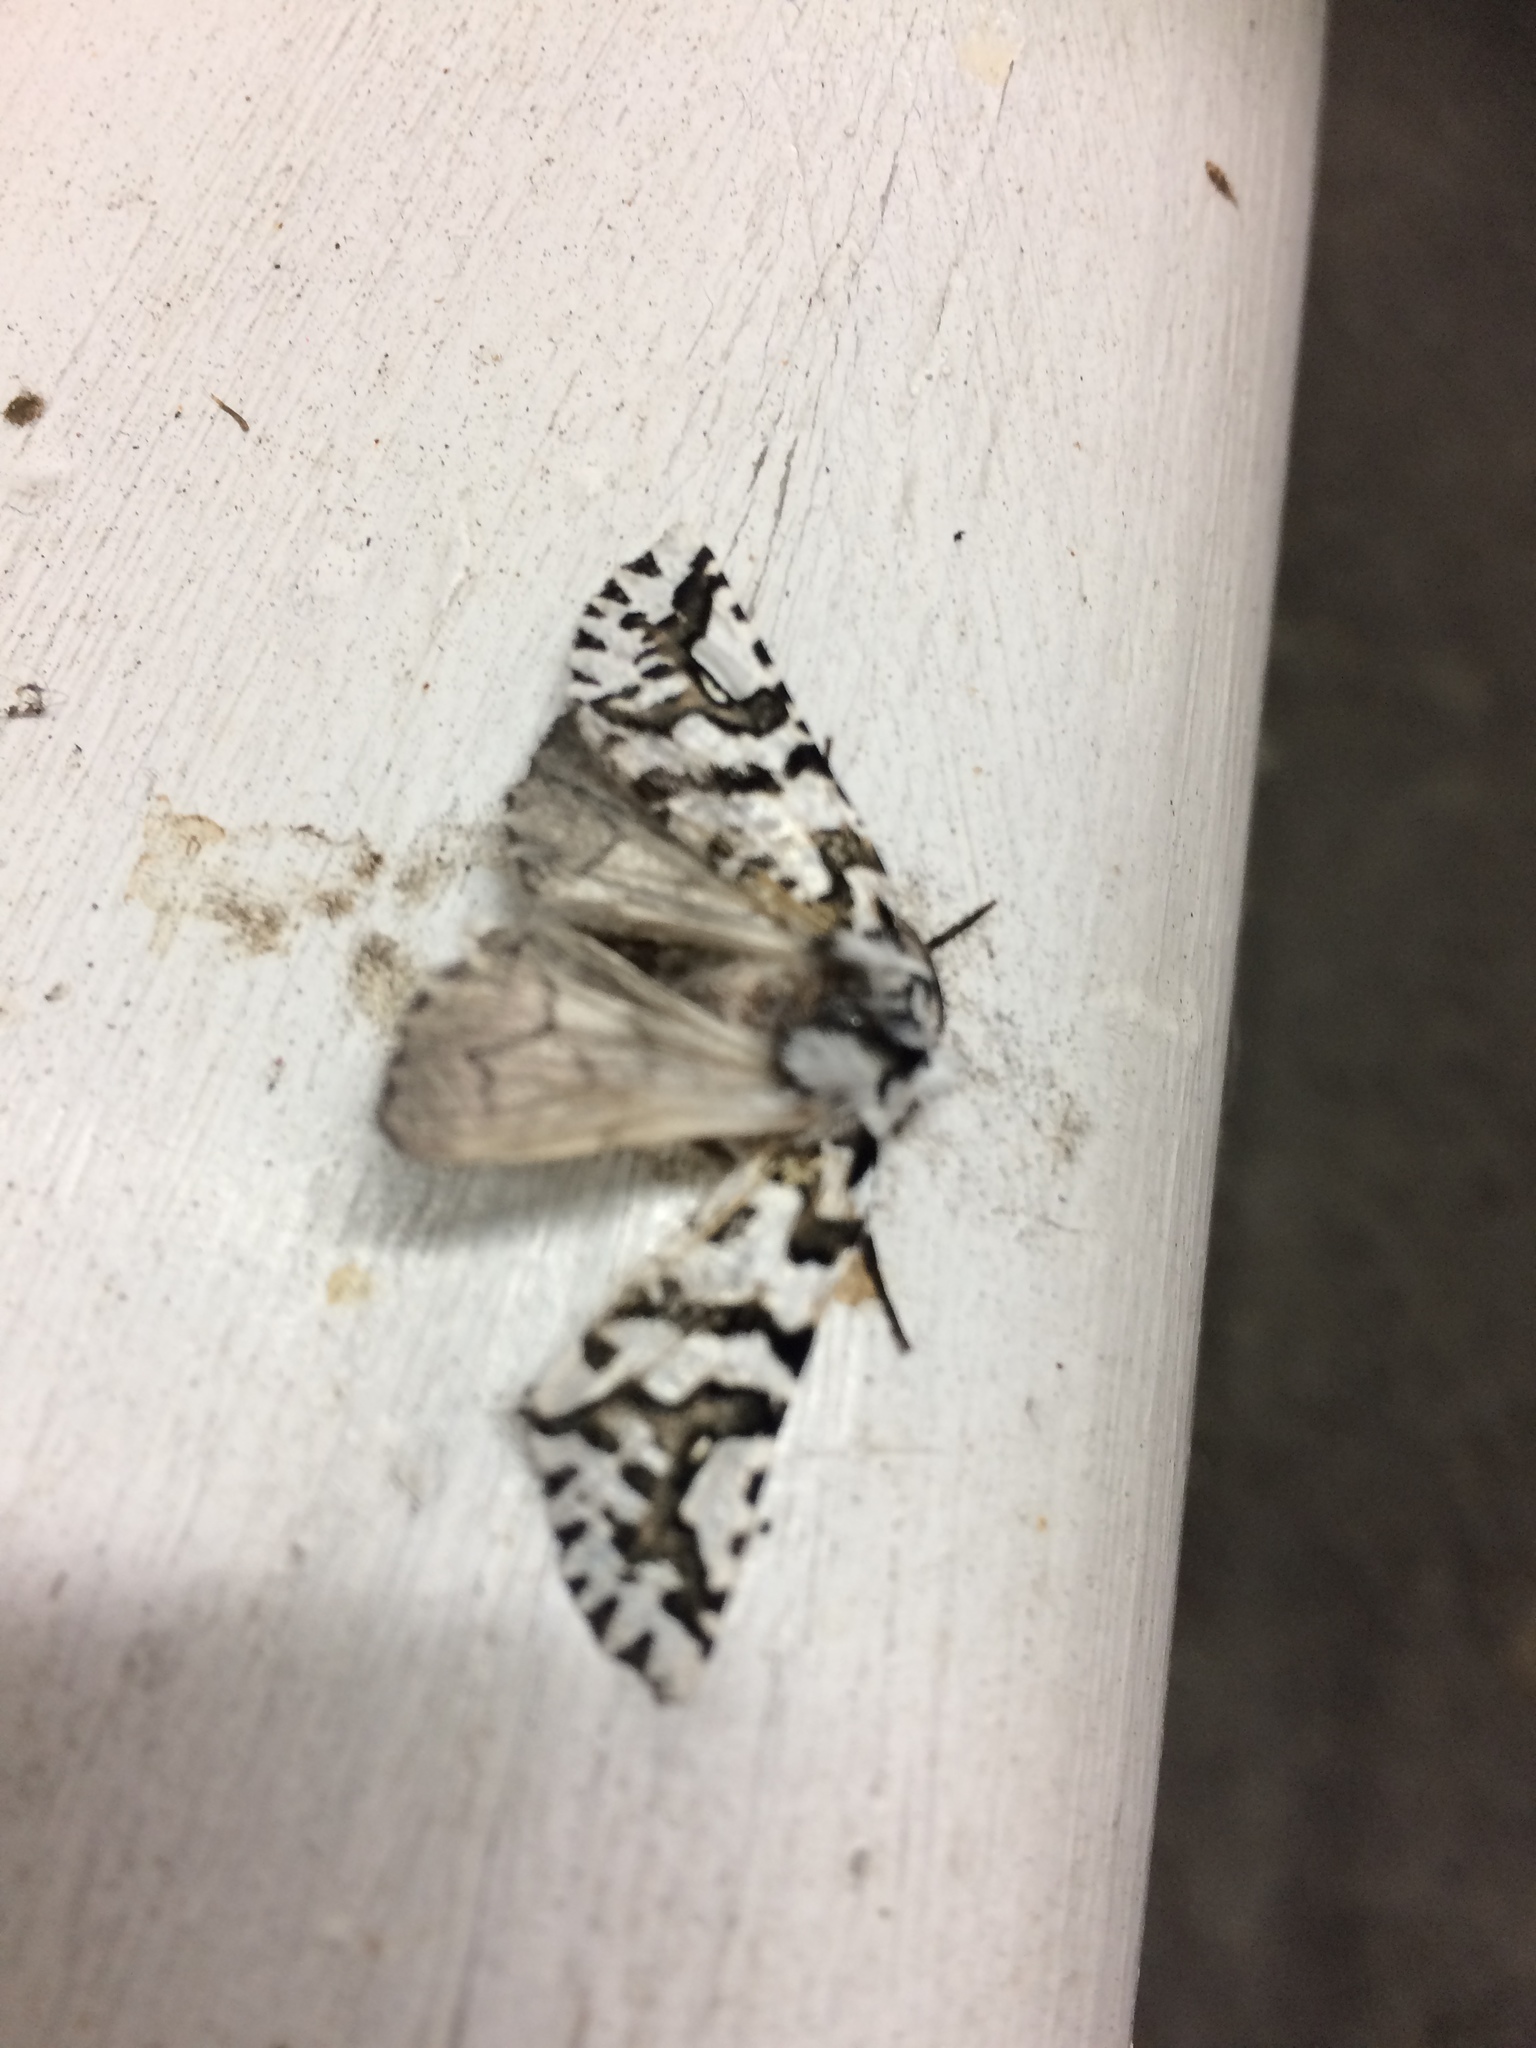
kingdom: Animalia
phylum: Arthropoda
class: Insecta
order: Lepidoptera
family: Geometridae
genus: Declana
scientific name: Declana
